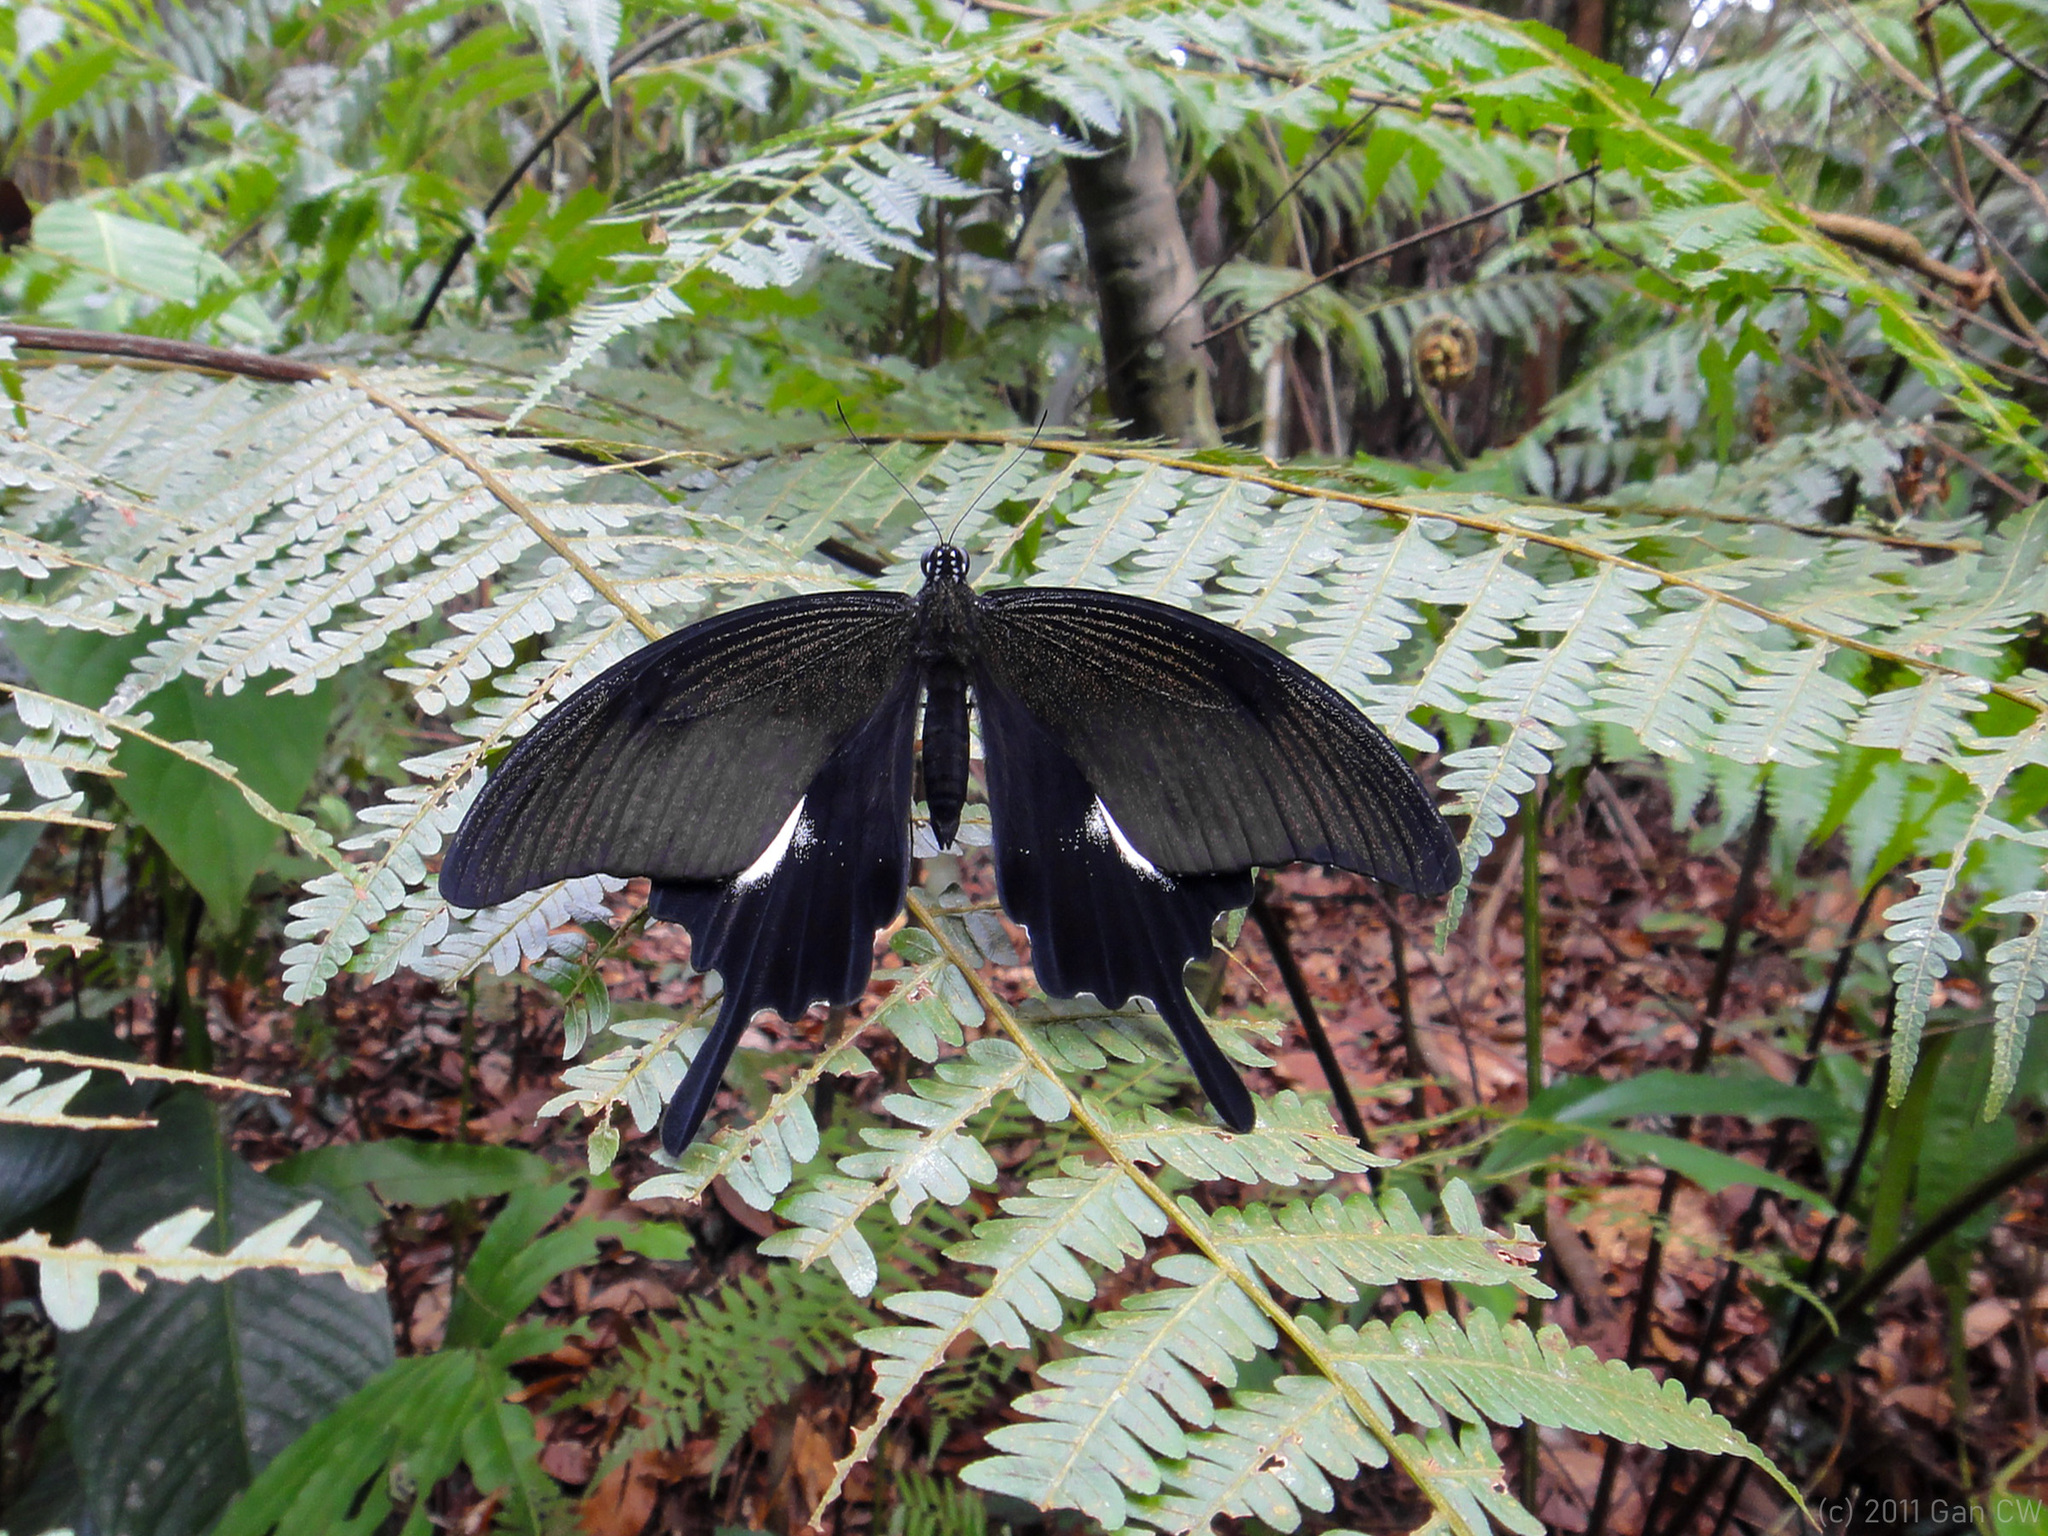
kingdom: Animalia
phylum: Arthropoda
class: Insecta
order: Lepidoptera
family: Papilionidae
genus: Papilio
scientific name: Papilio iswara
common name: Great helen swallowtail
